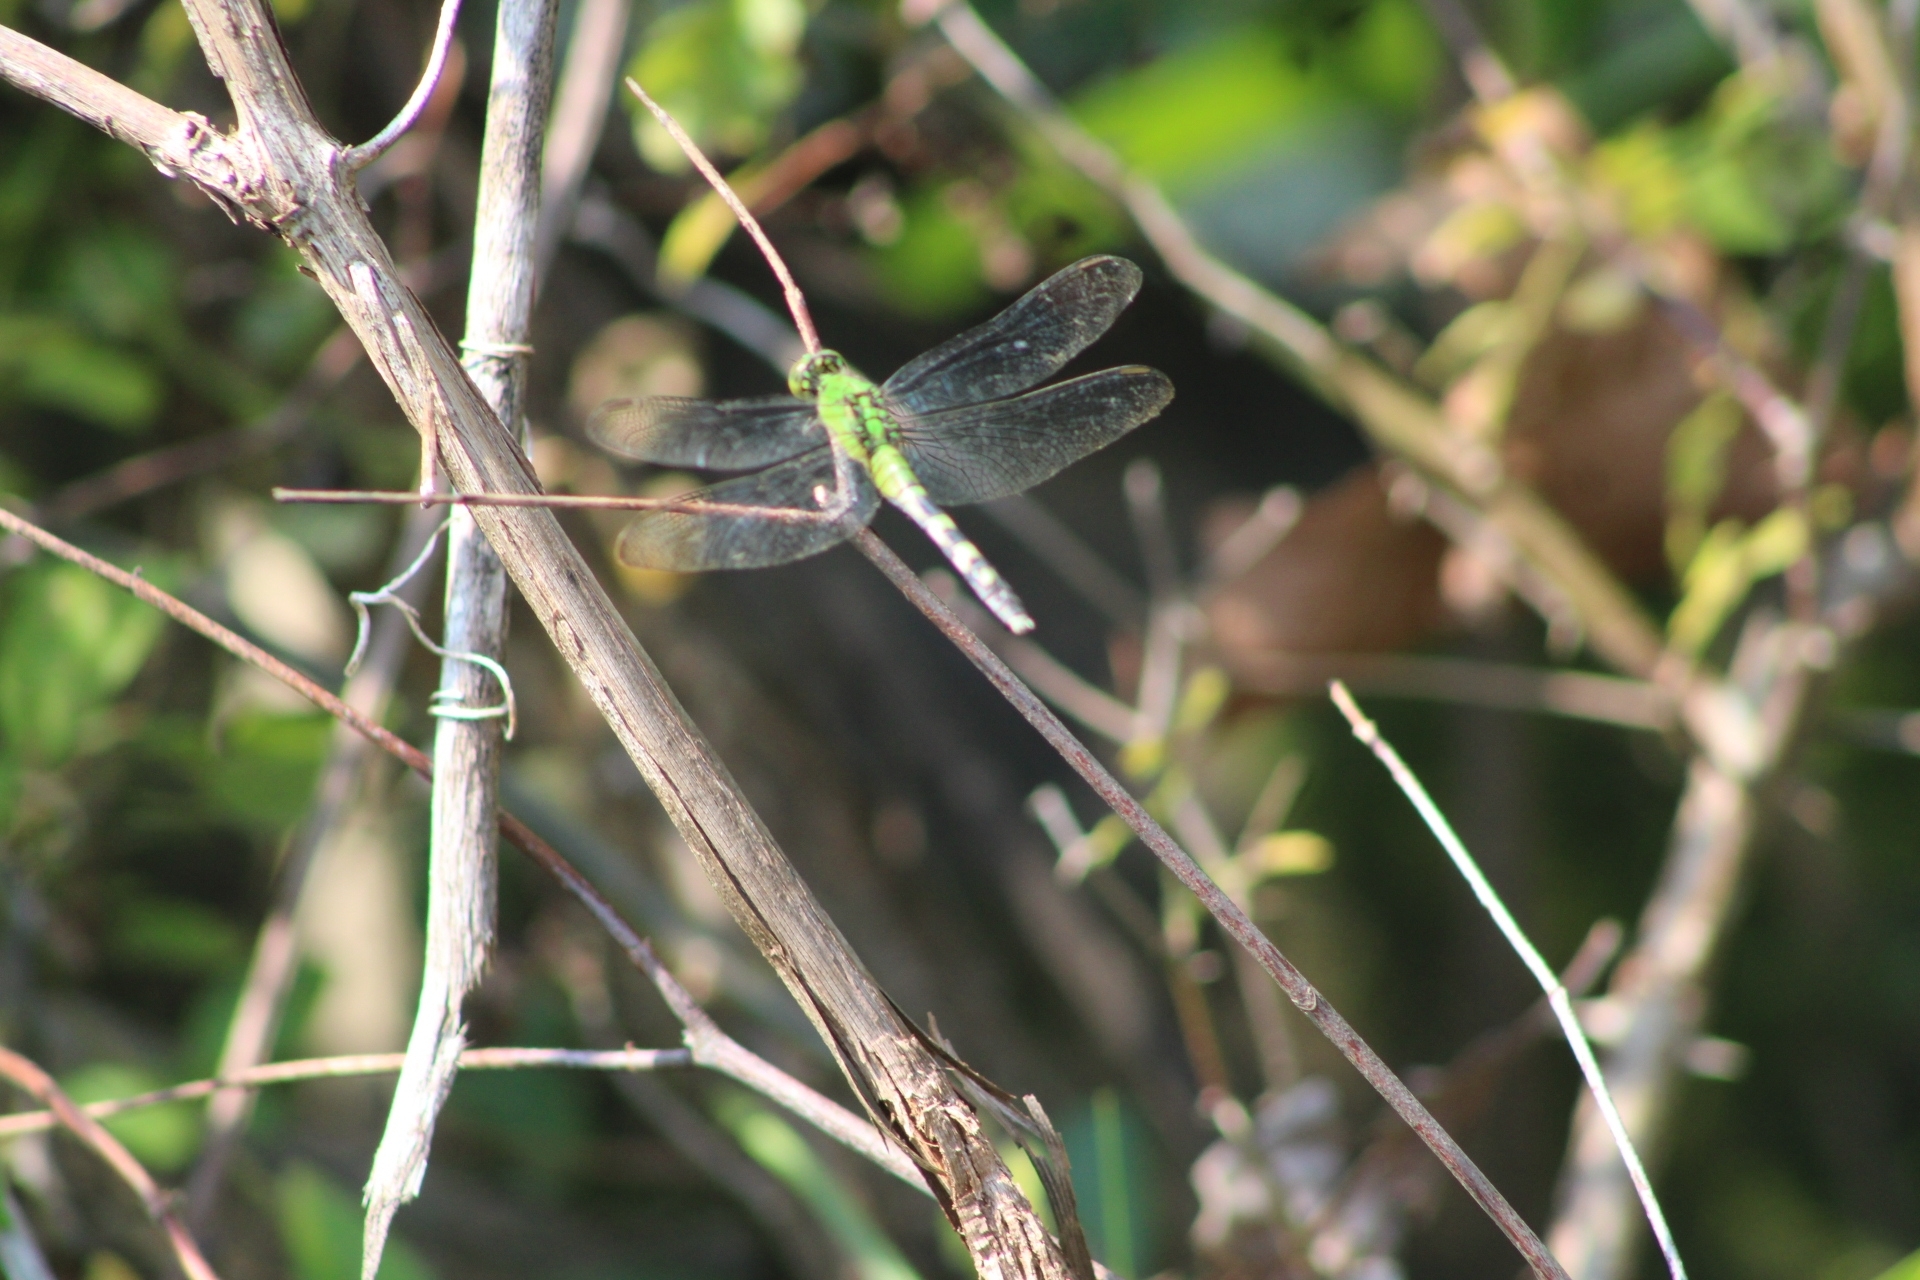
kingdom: Animalia
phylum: Arthropoda
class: Insecta
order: Odonata
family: Libellulidae
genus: Erythemis
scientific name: Erythemis simplicicollis
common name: Eastern pondhawk
